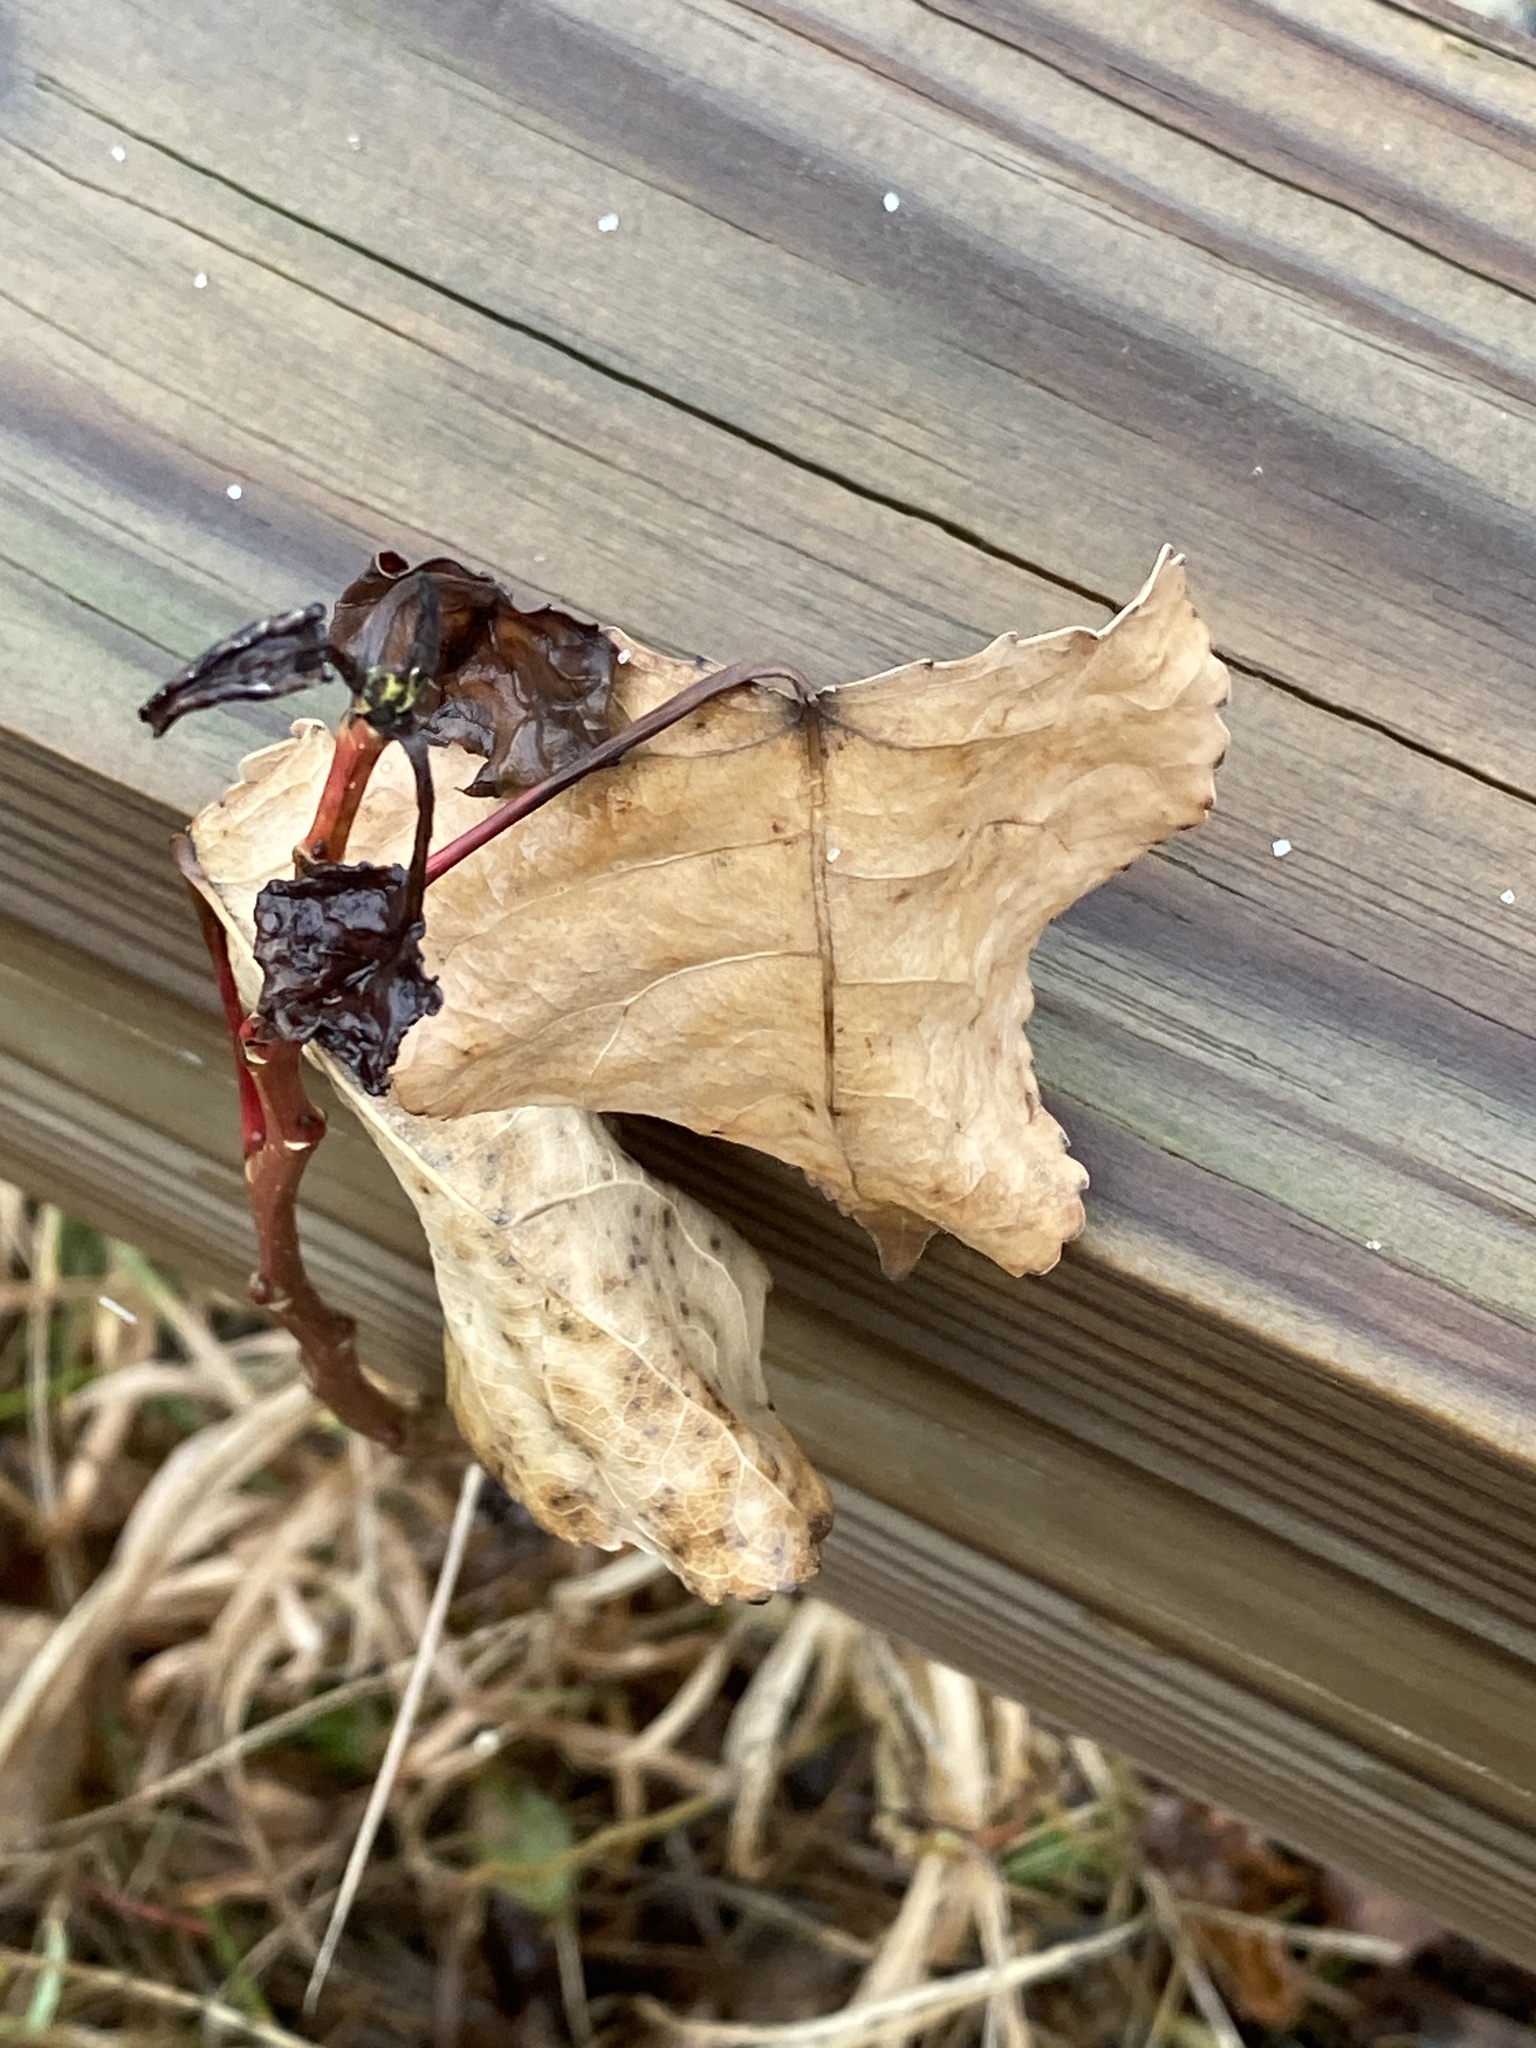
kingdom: Plantae
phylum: Tracheophyta
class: Magnoliopsida
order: Malpighiales
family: Salicaceae
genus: Populus
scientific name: Populus deltoides
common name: Eastern cottonwood
